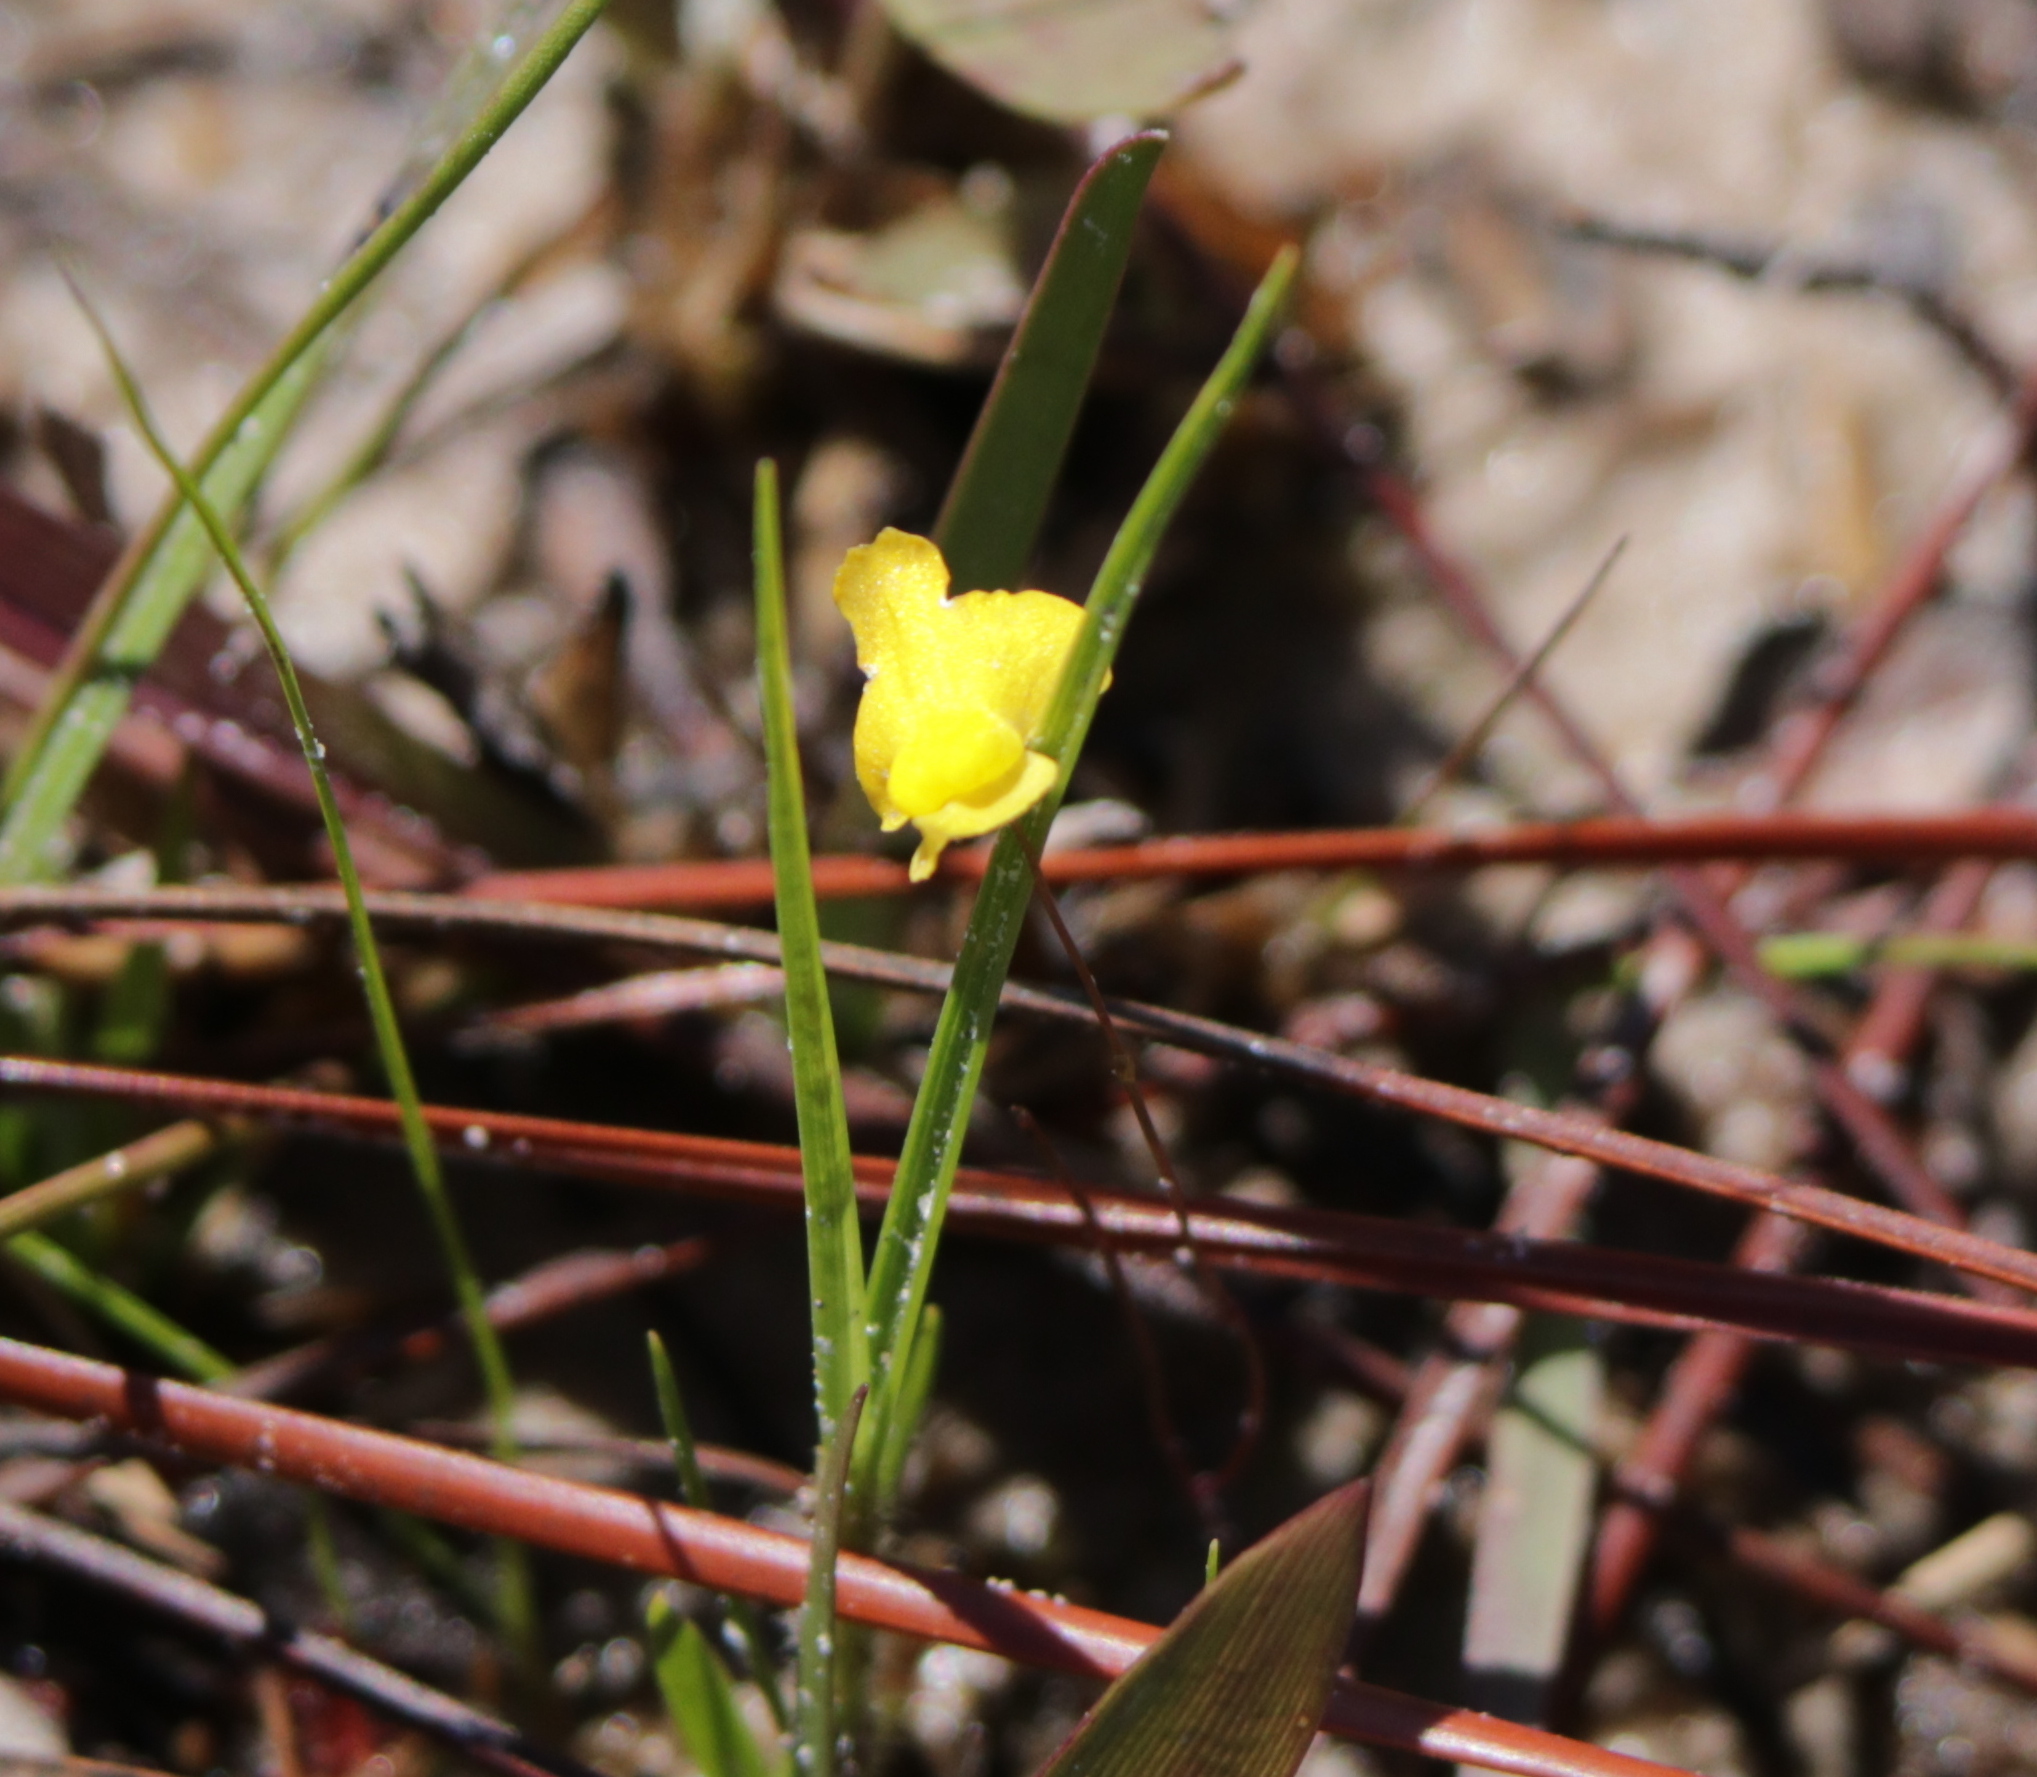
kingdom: Plantae
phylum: Tracheophyta
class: Magnoliopsida
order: Lamiales
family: Lentibulariaceae
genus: Utricularia
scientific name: Utricularia subulata
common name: Tiny bladderwort
